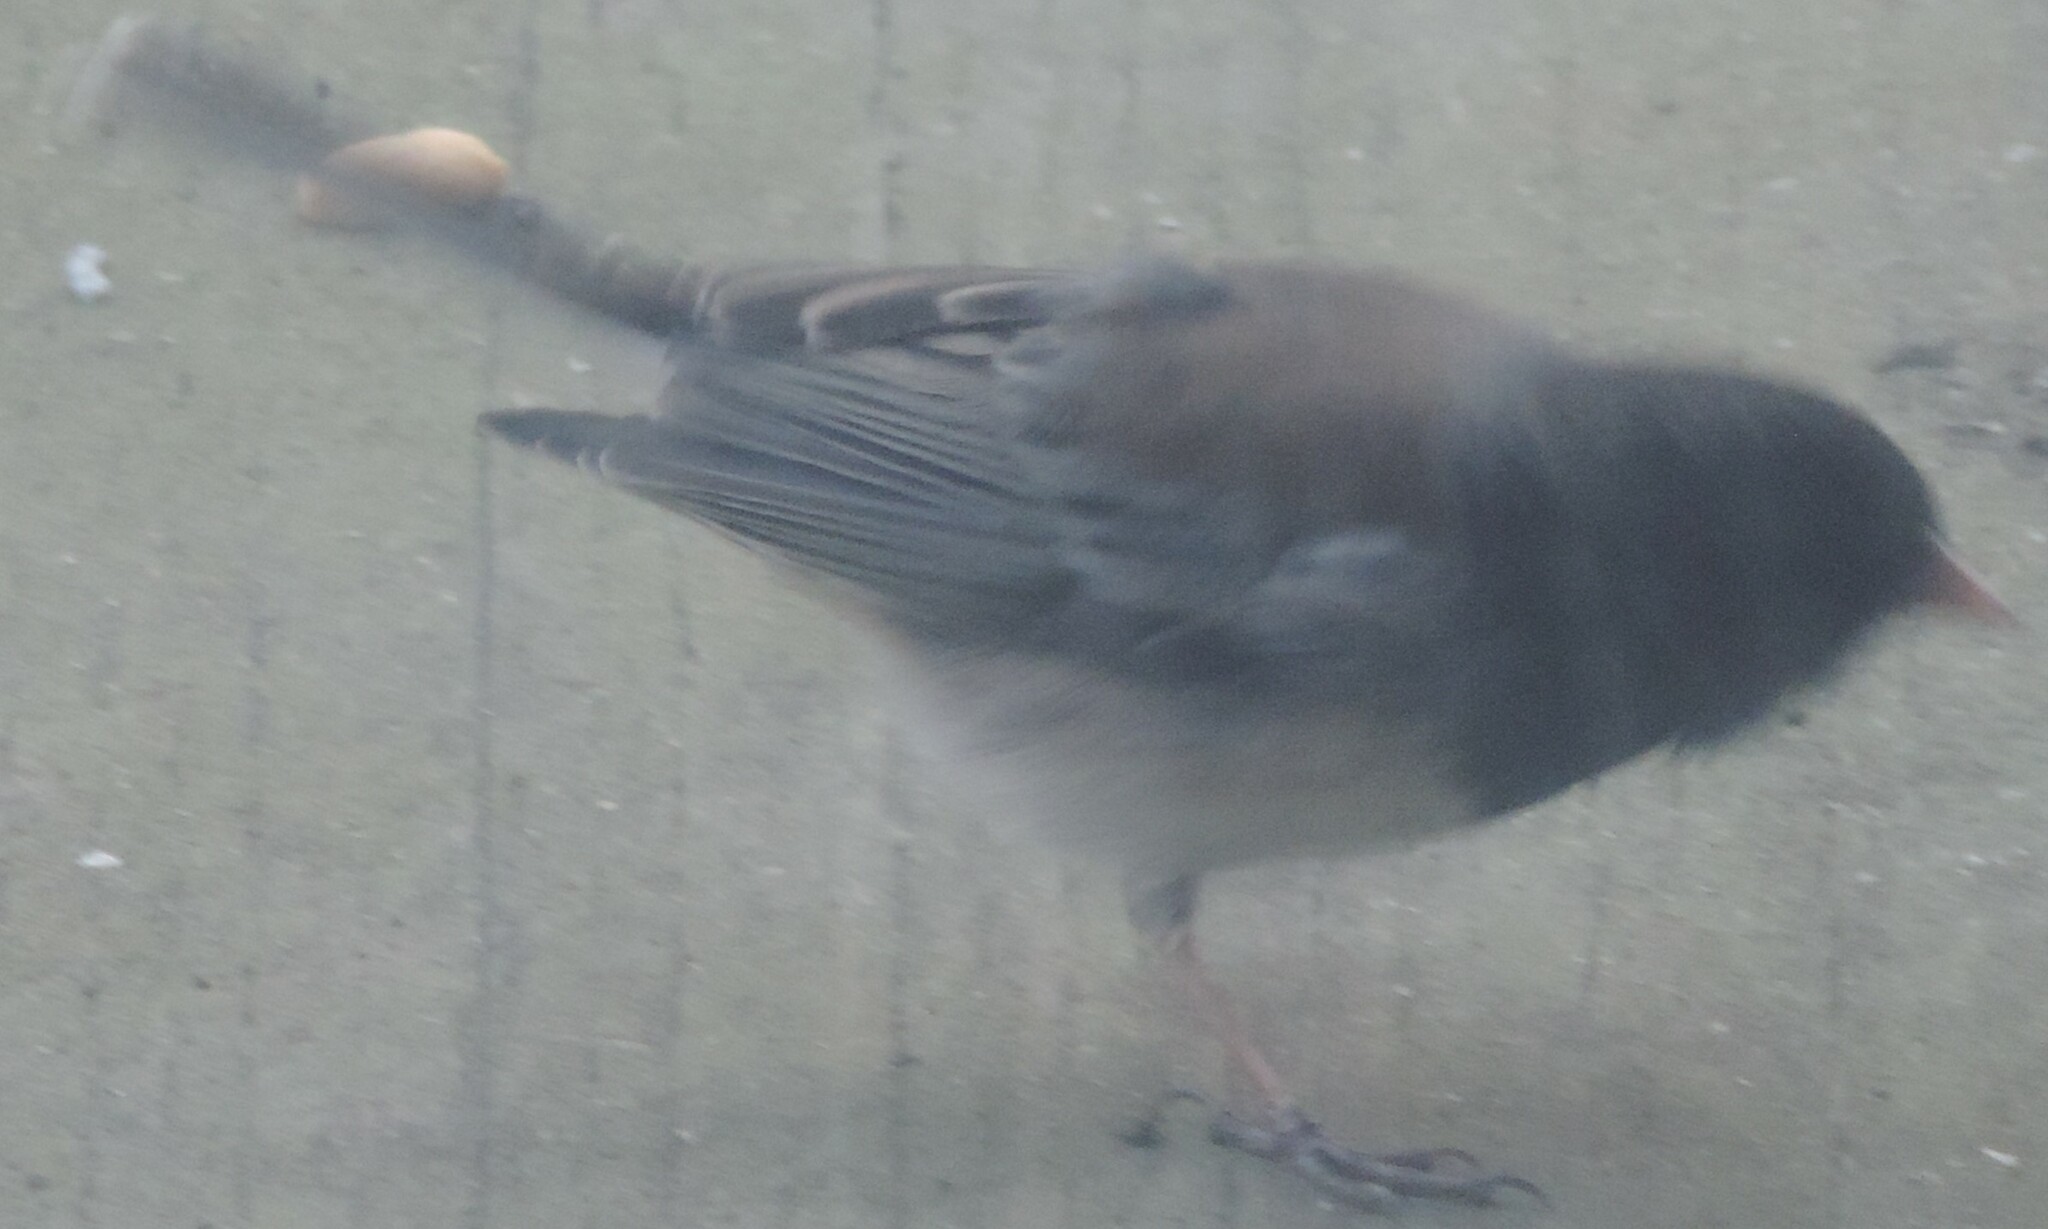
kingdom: Animalia
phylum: Chordata
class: Aves
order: Passeriformes
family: Passerellidae
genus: Junco
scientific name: Junco hyemalis
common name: Dark-eyed junco
